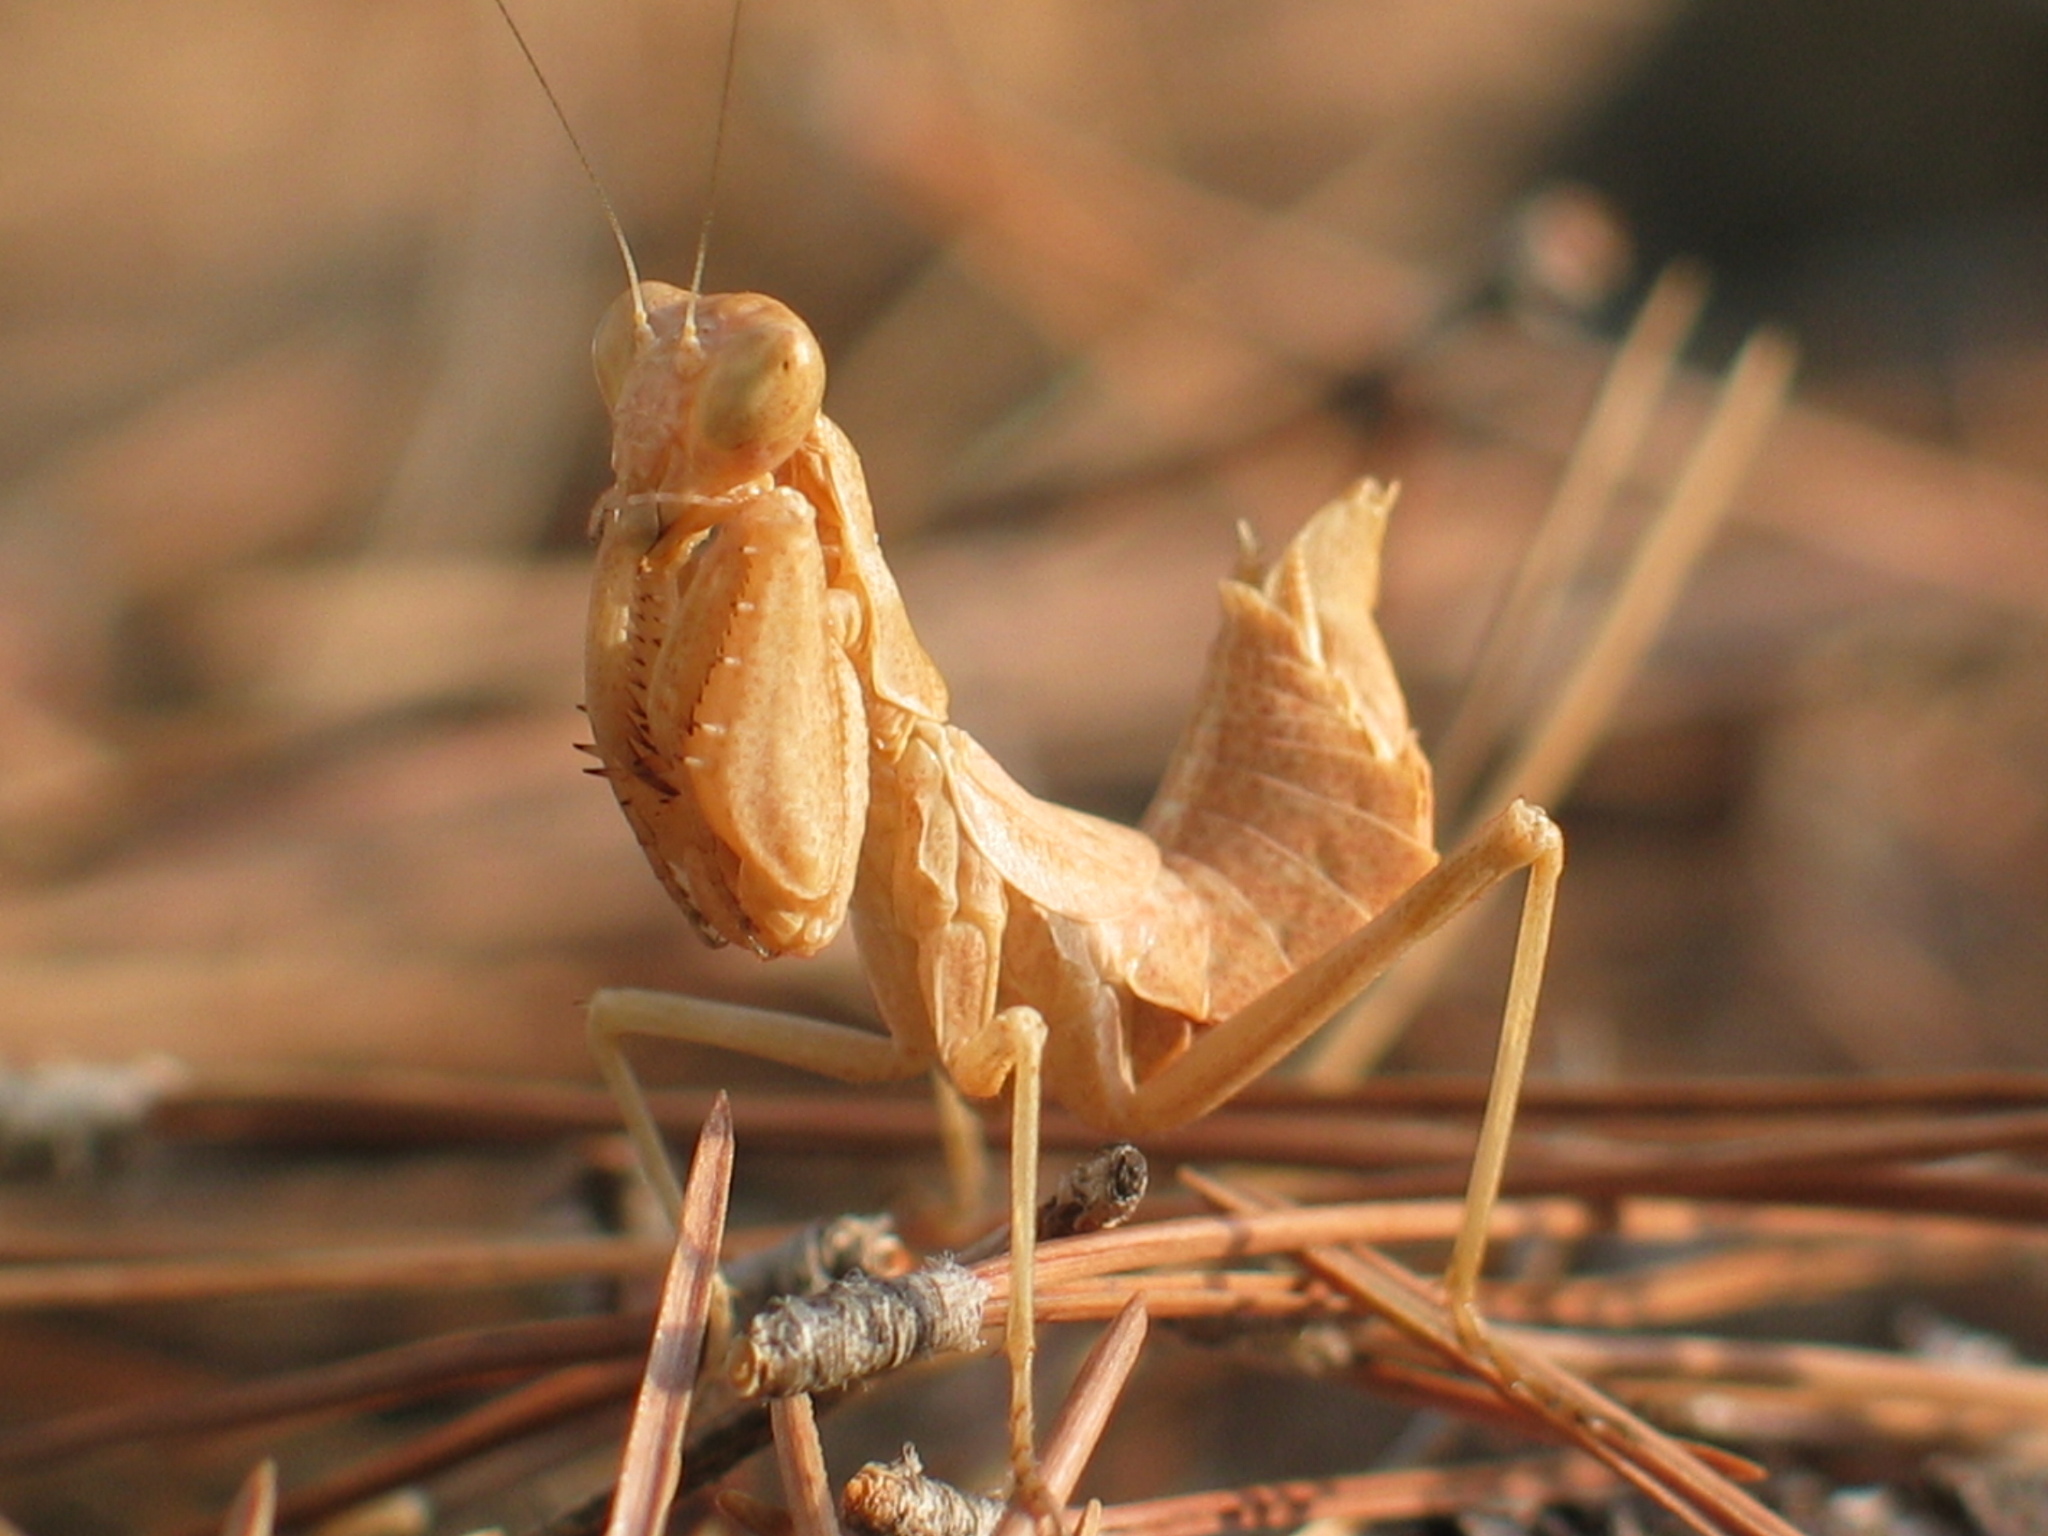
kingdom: Animalia
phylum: Arthropoda
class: Insecta
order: Mantodea
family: Amelidae
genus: Ameles
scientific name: Ameles spallanzania
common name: European dwarf mantis
